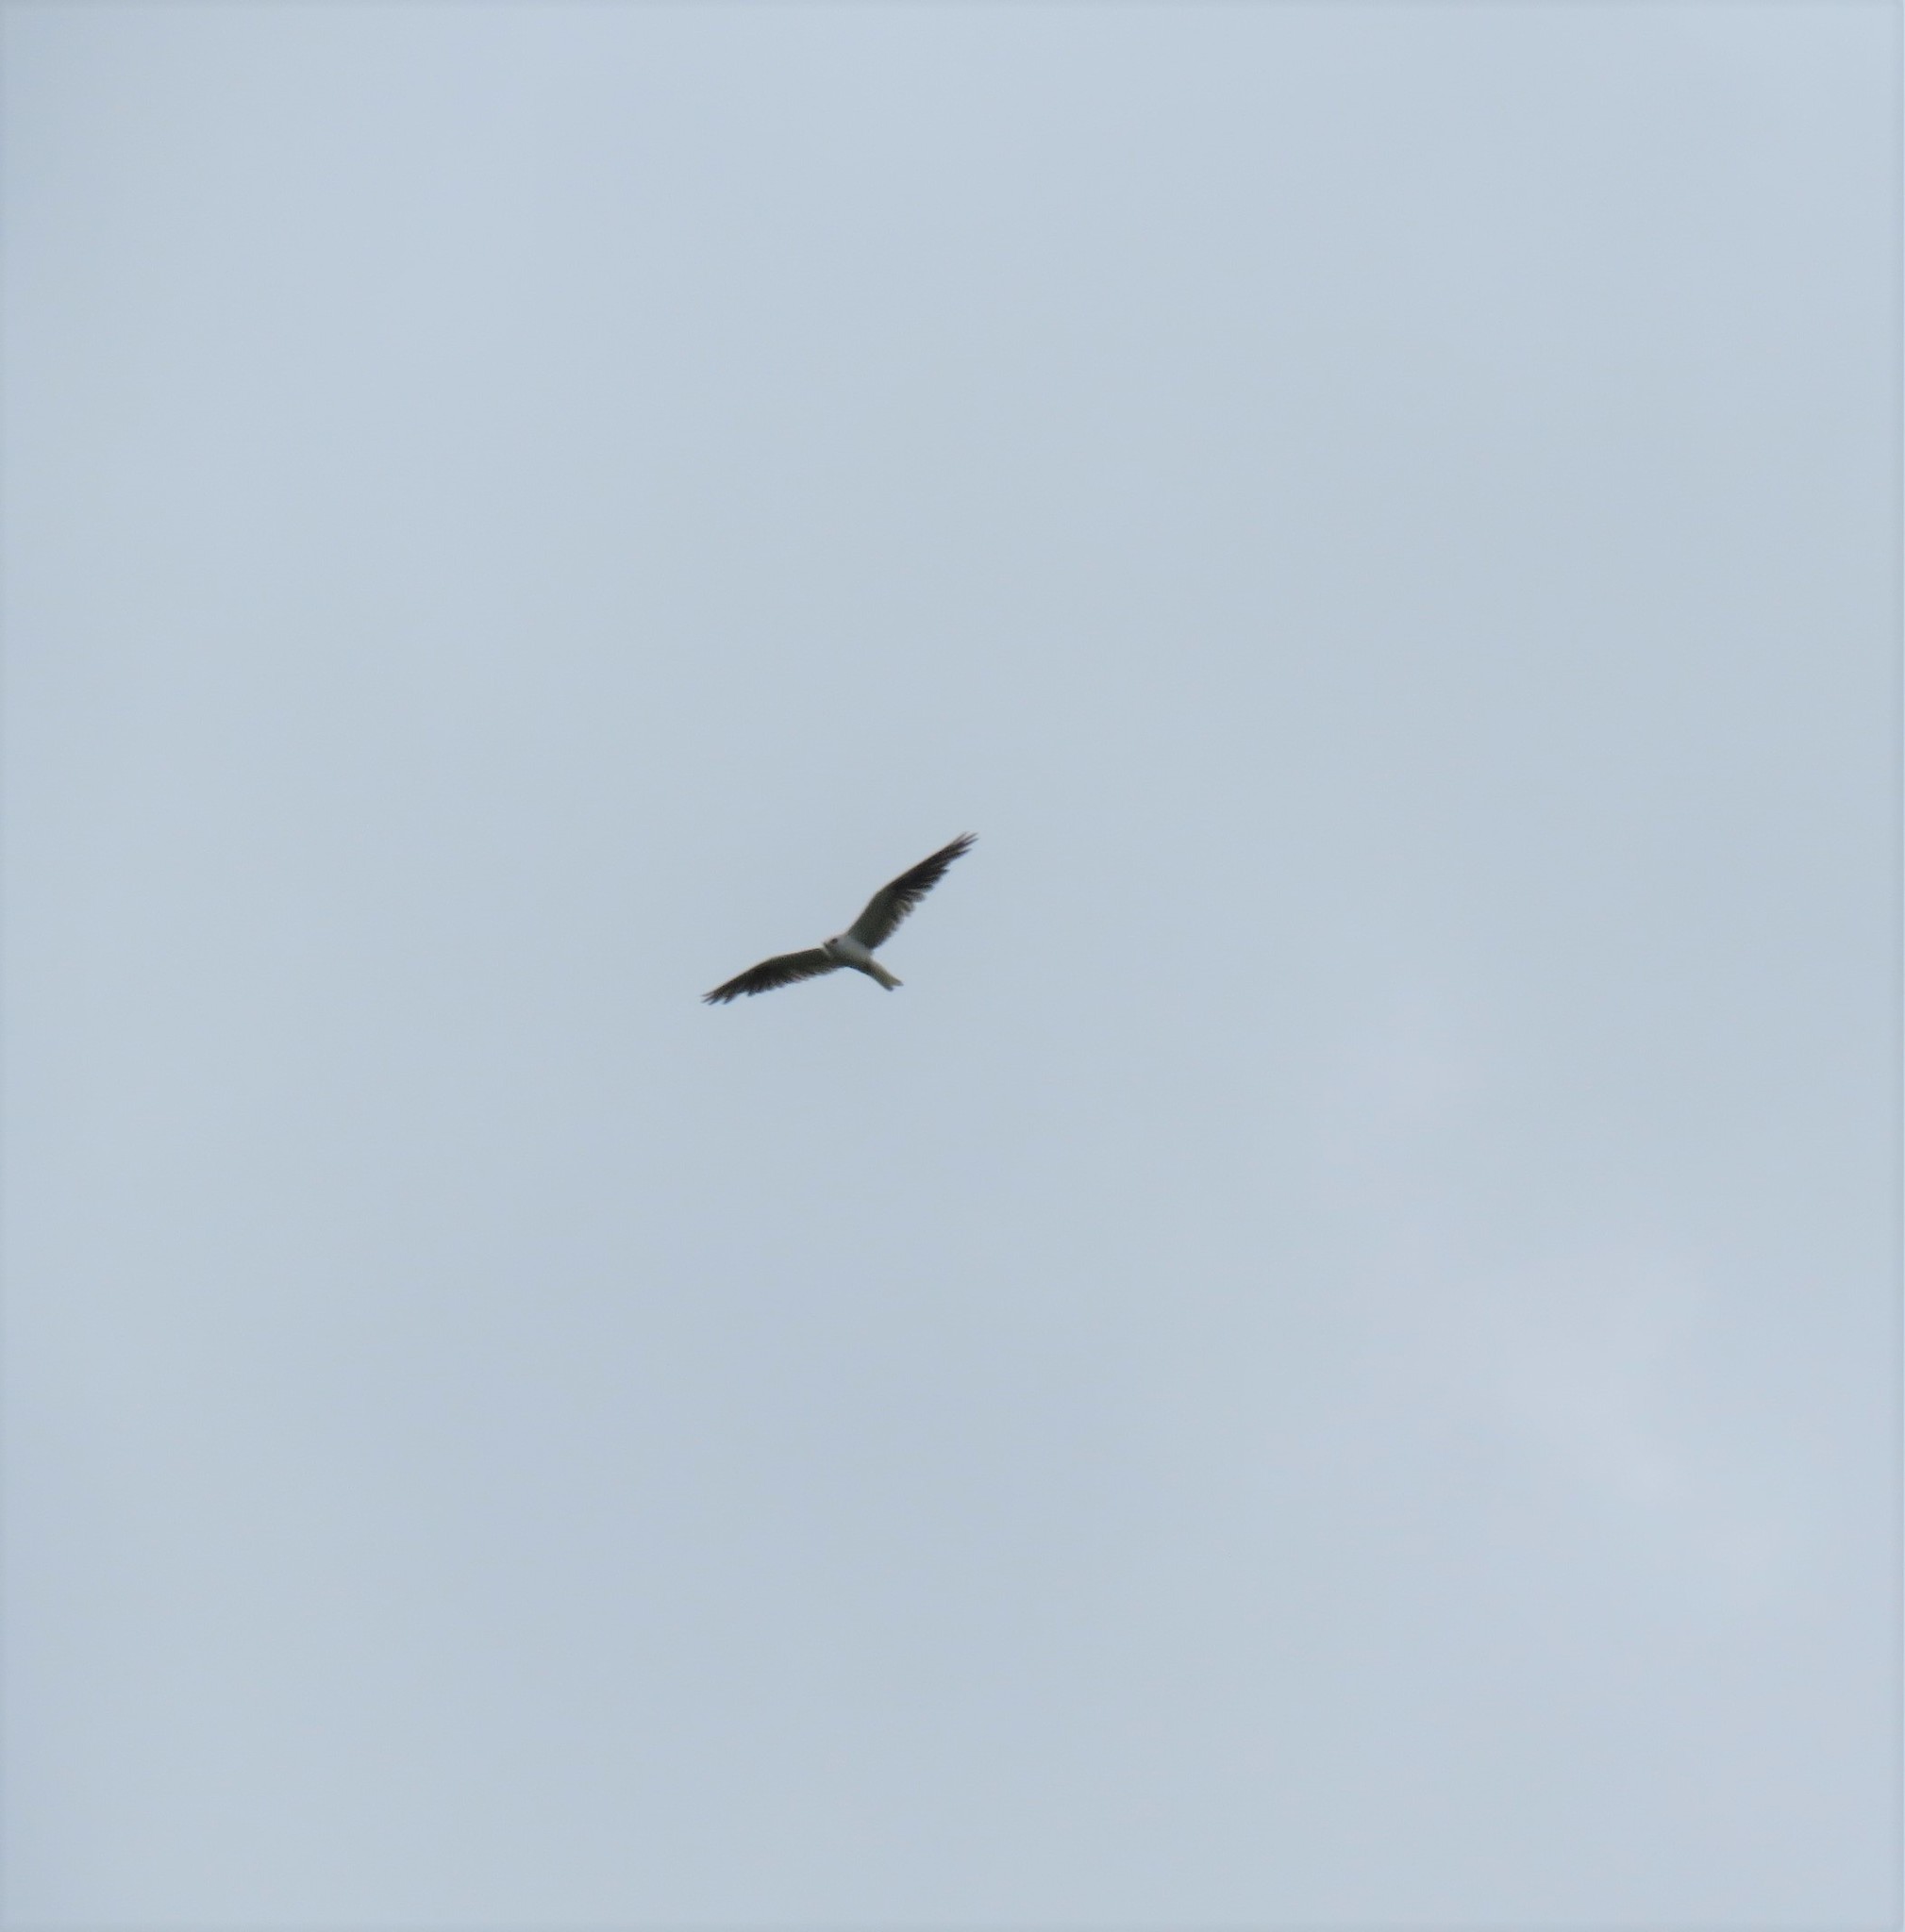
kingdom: Animalia
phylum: Chordata
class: Aves
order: Accipitriformes
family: Accipitridae
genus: Elanus
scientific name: Elanus leucurus
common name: White-tailed kite
